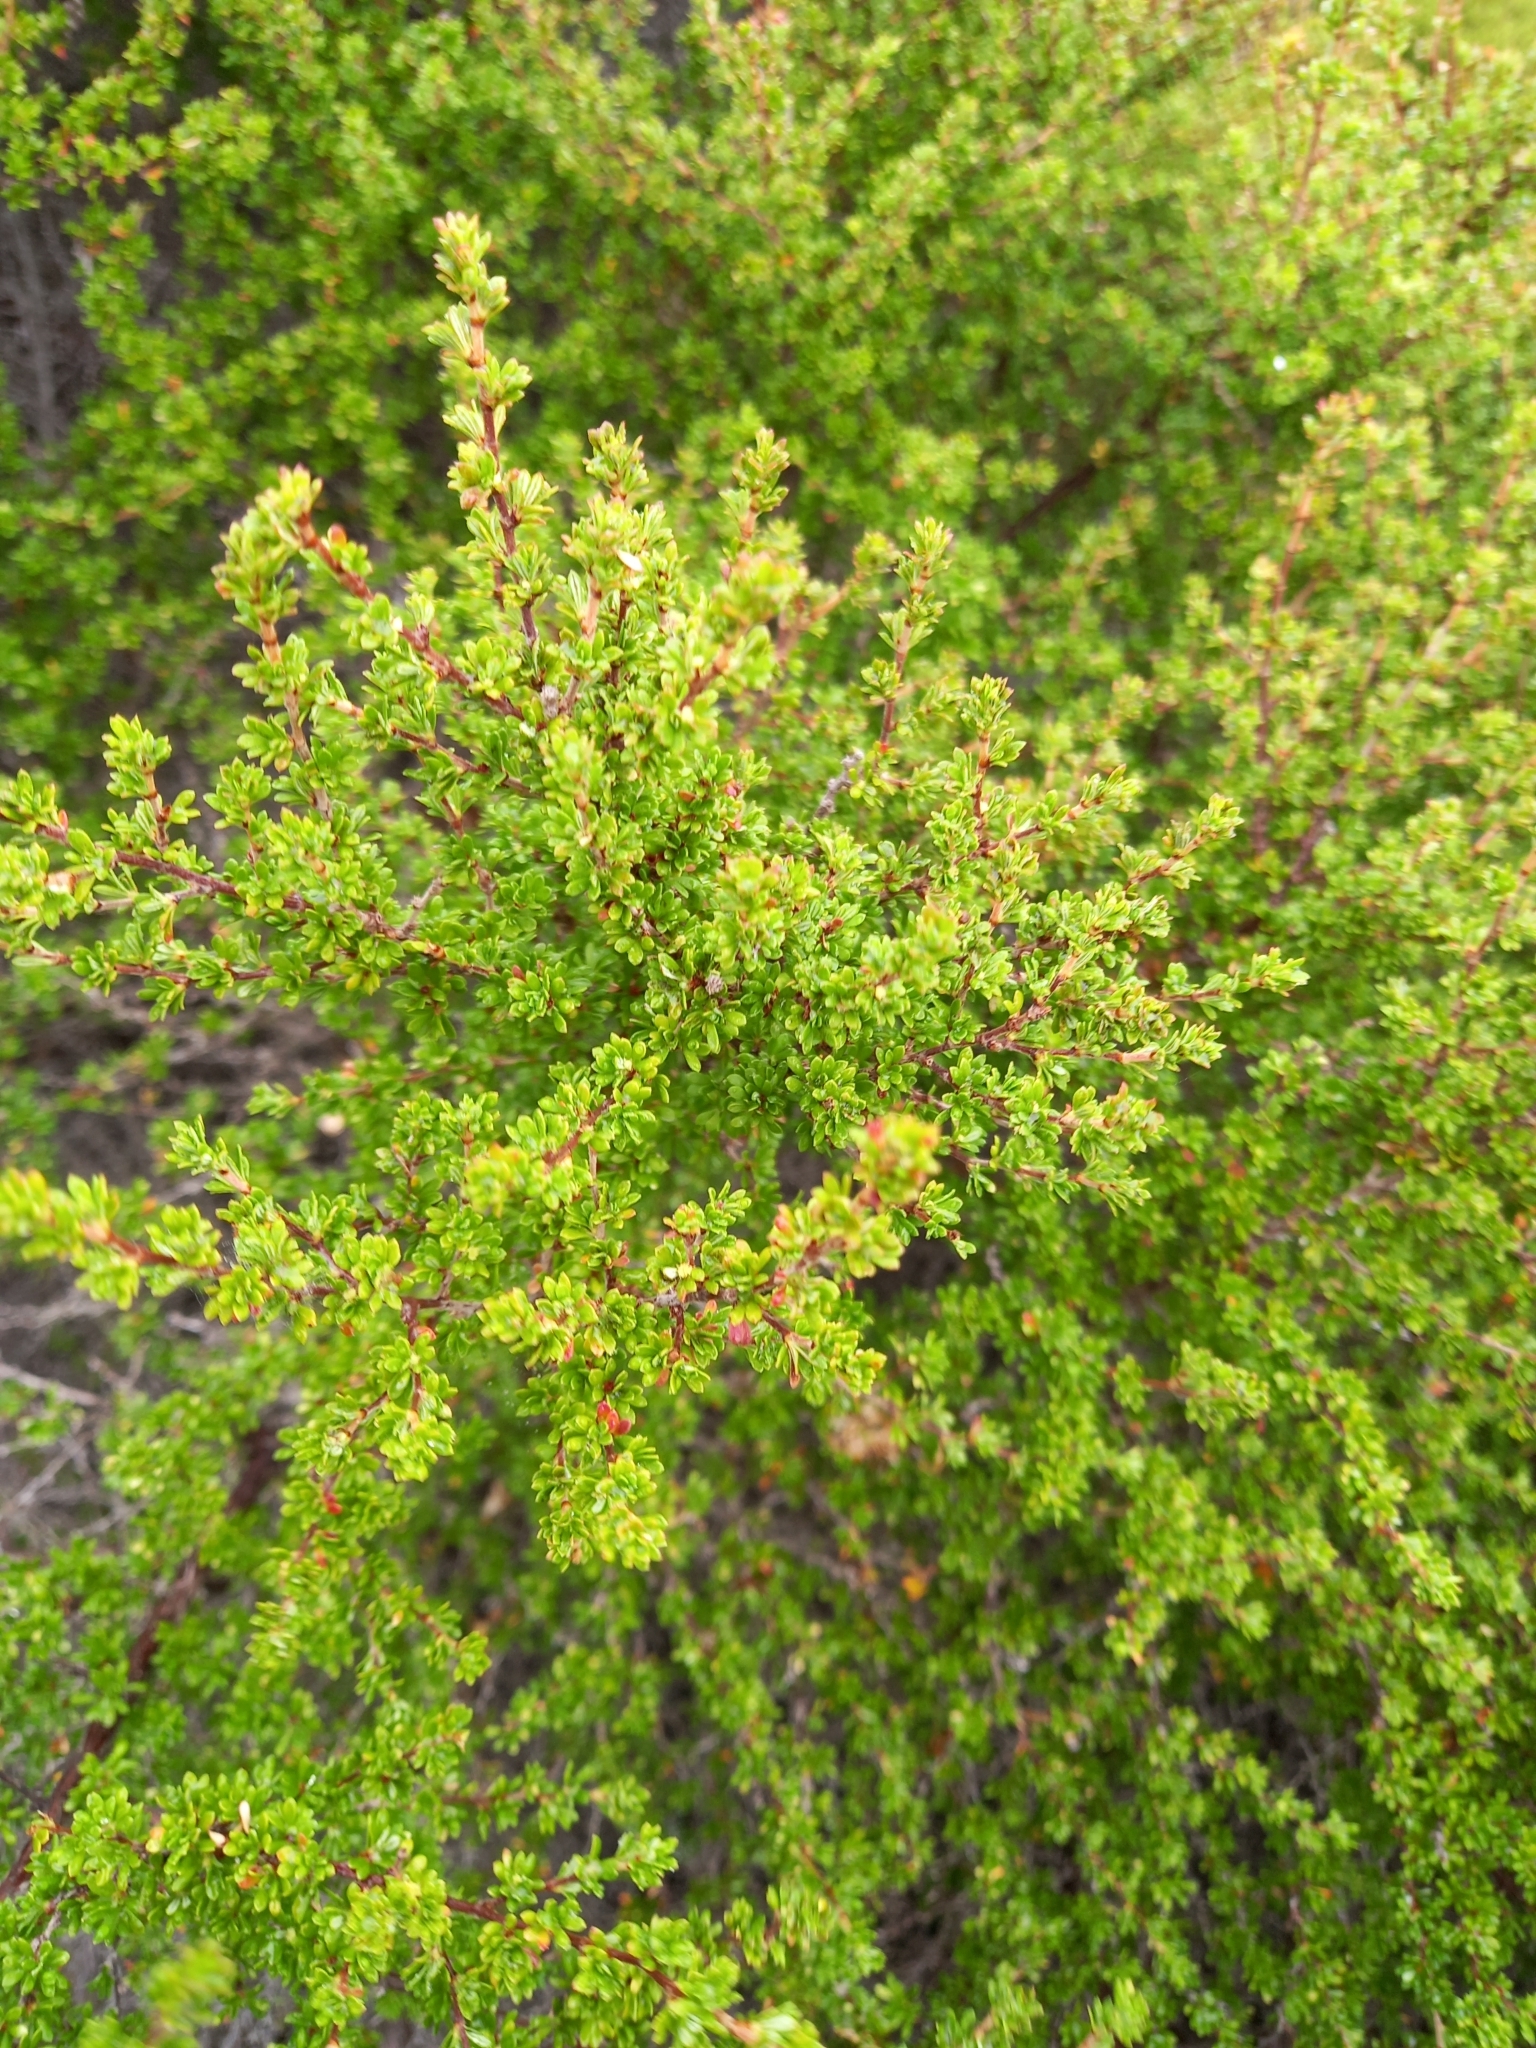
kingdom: Plantae
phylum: Tracheophyta
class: Magnoliopsida
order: Rosales
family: Rosaceae
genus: Cliffortia
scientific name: Cliffortia serpyllifolia
